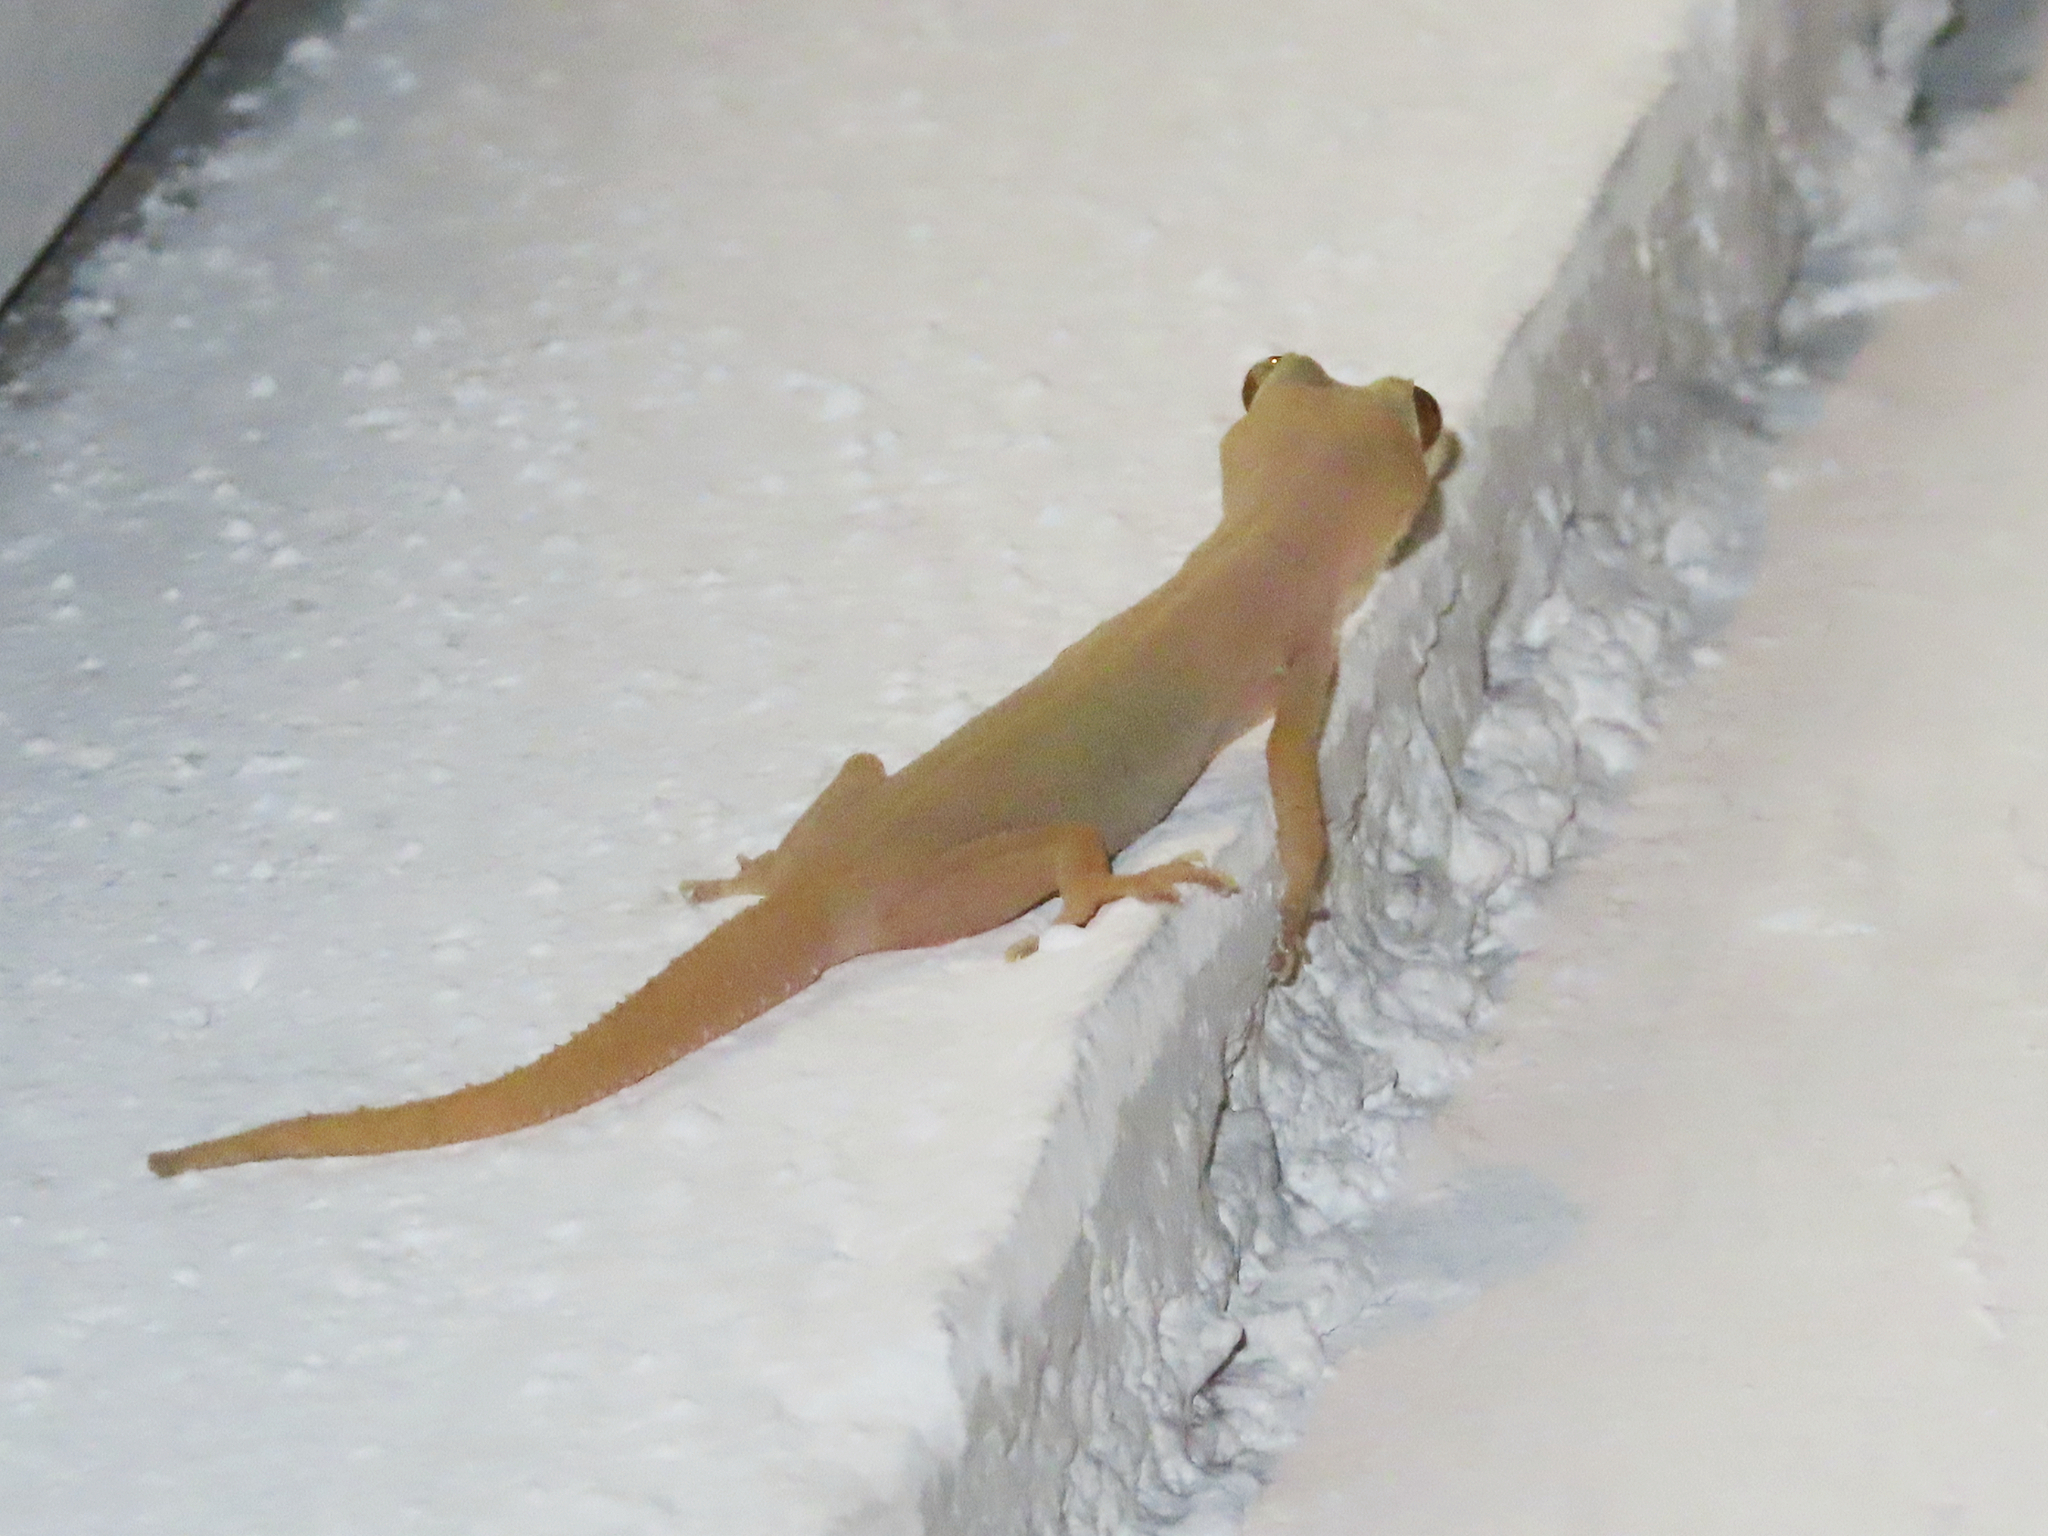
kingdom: Animalia
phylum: Chordata
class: Squamata
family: Gekkonidae
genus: Hemidactylus
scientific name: Hemidactylus frenatus
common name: Common house gecko
